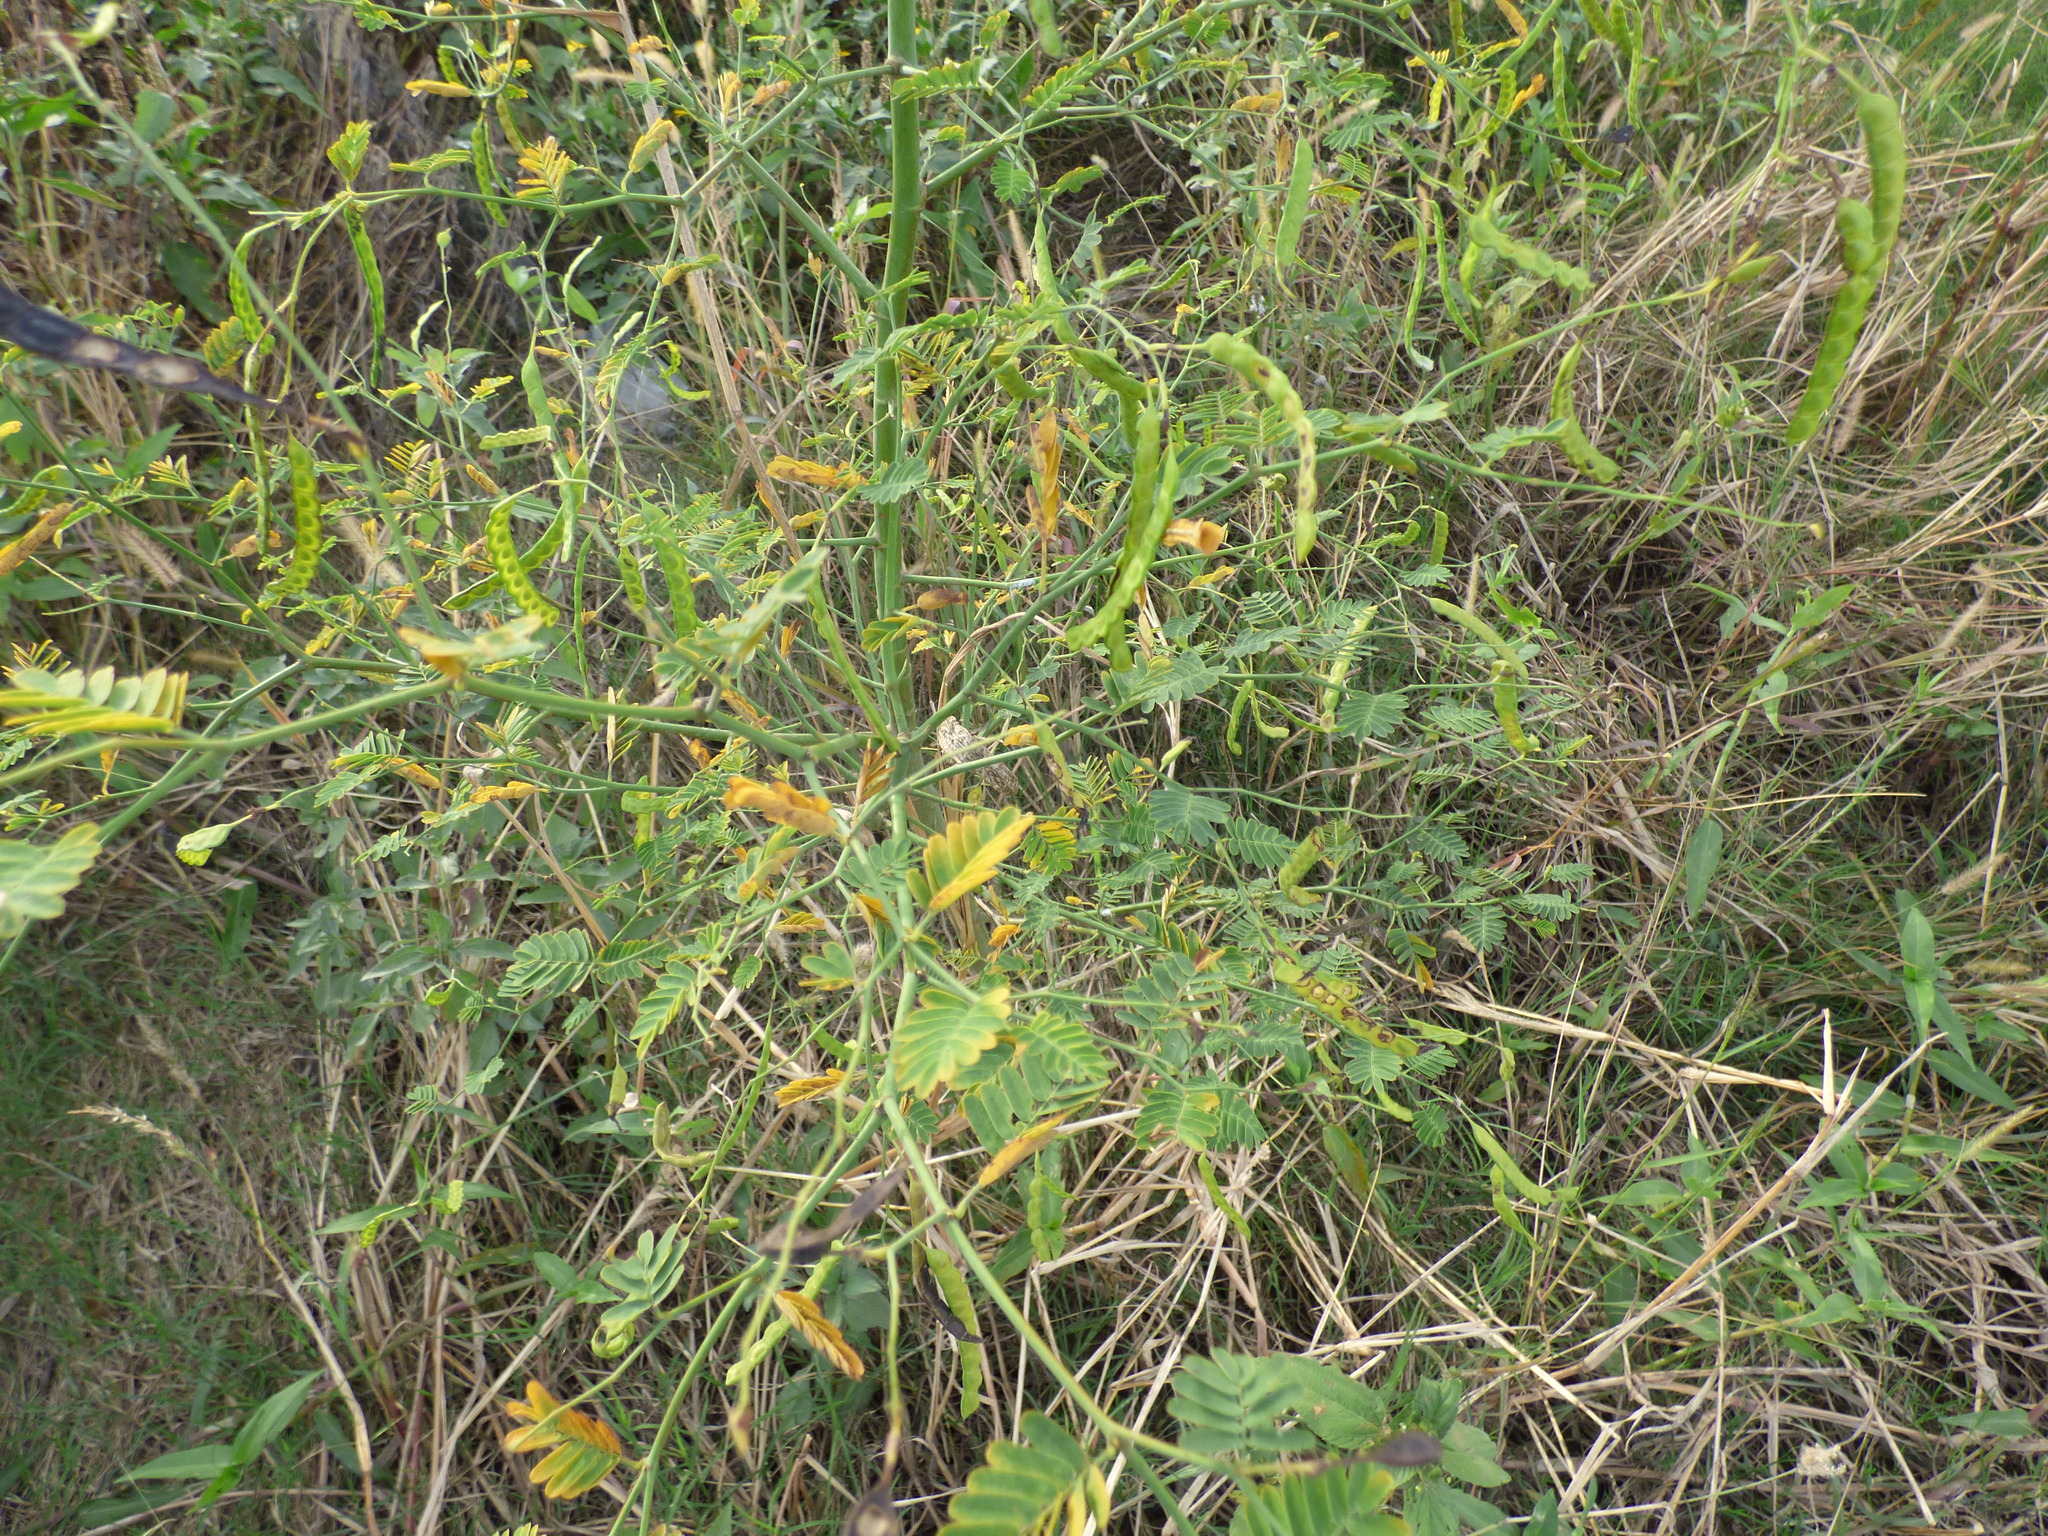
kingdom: Plantae
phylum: Tracheophyta
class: Magnoliopsida
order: Fabales
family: Fabaceae
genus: Aeschynomene
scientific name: Aeschynomene sensitiva
